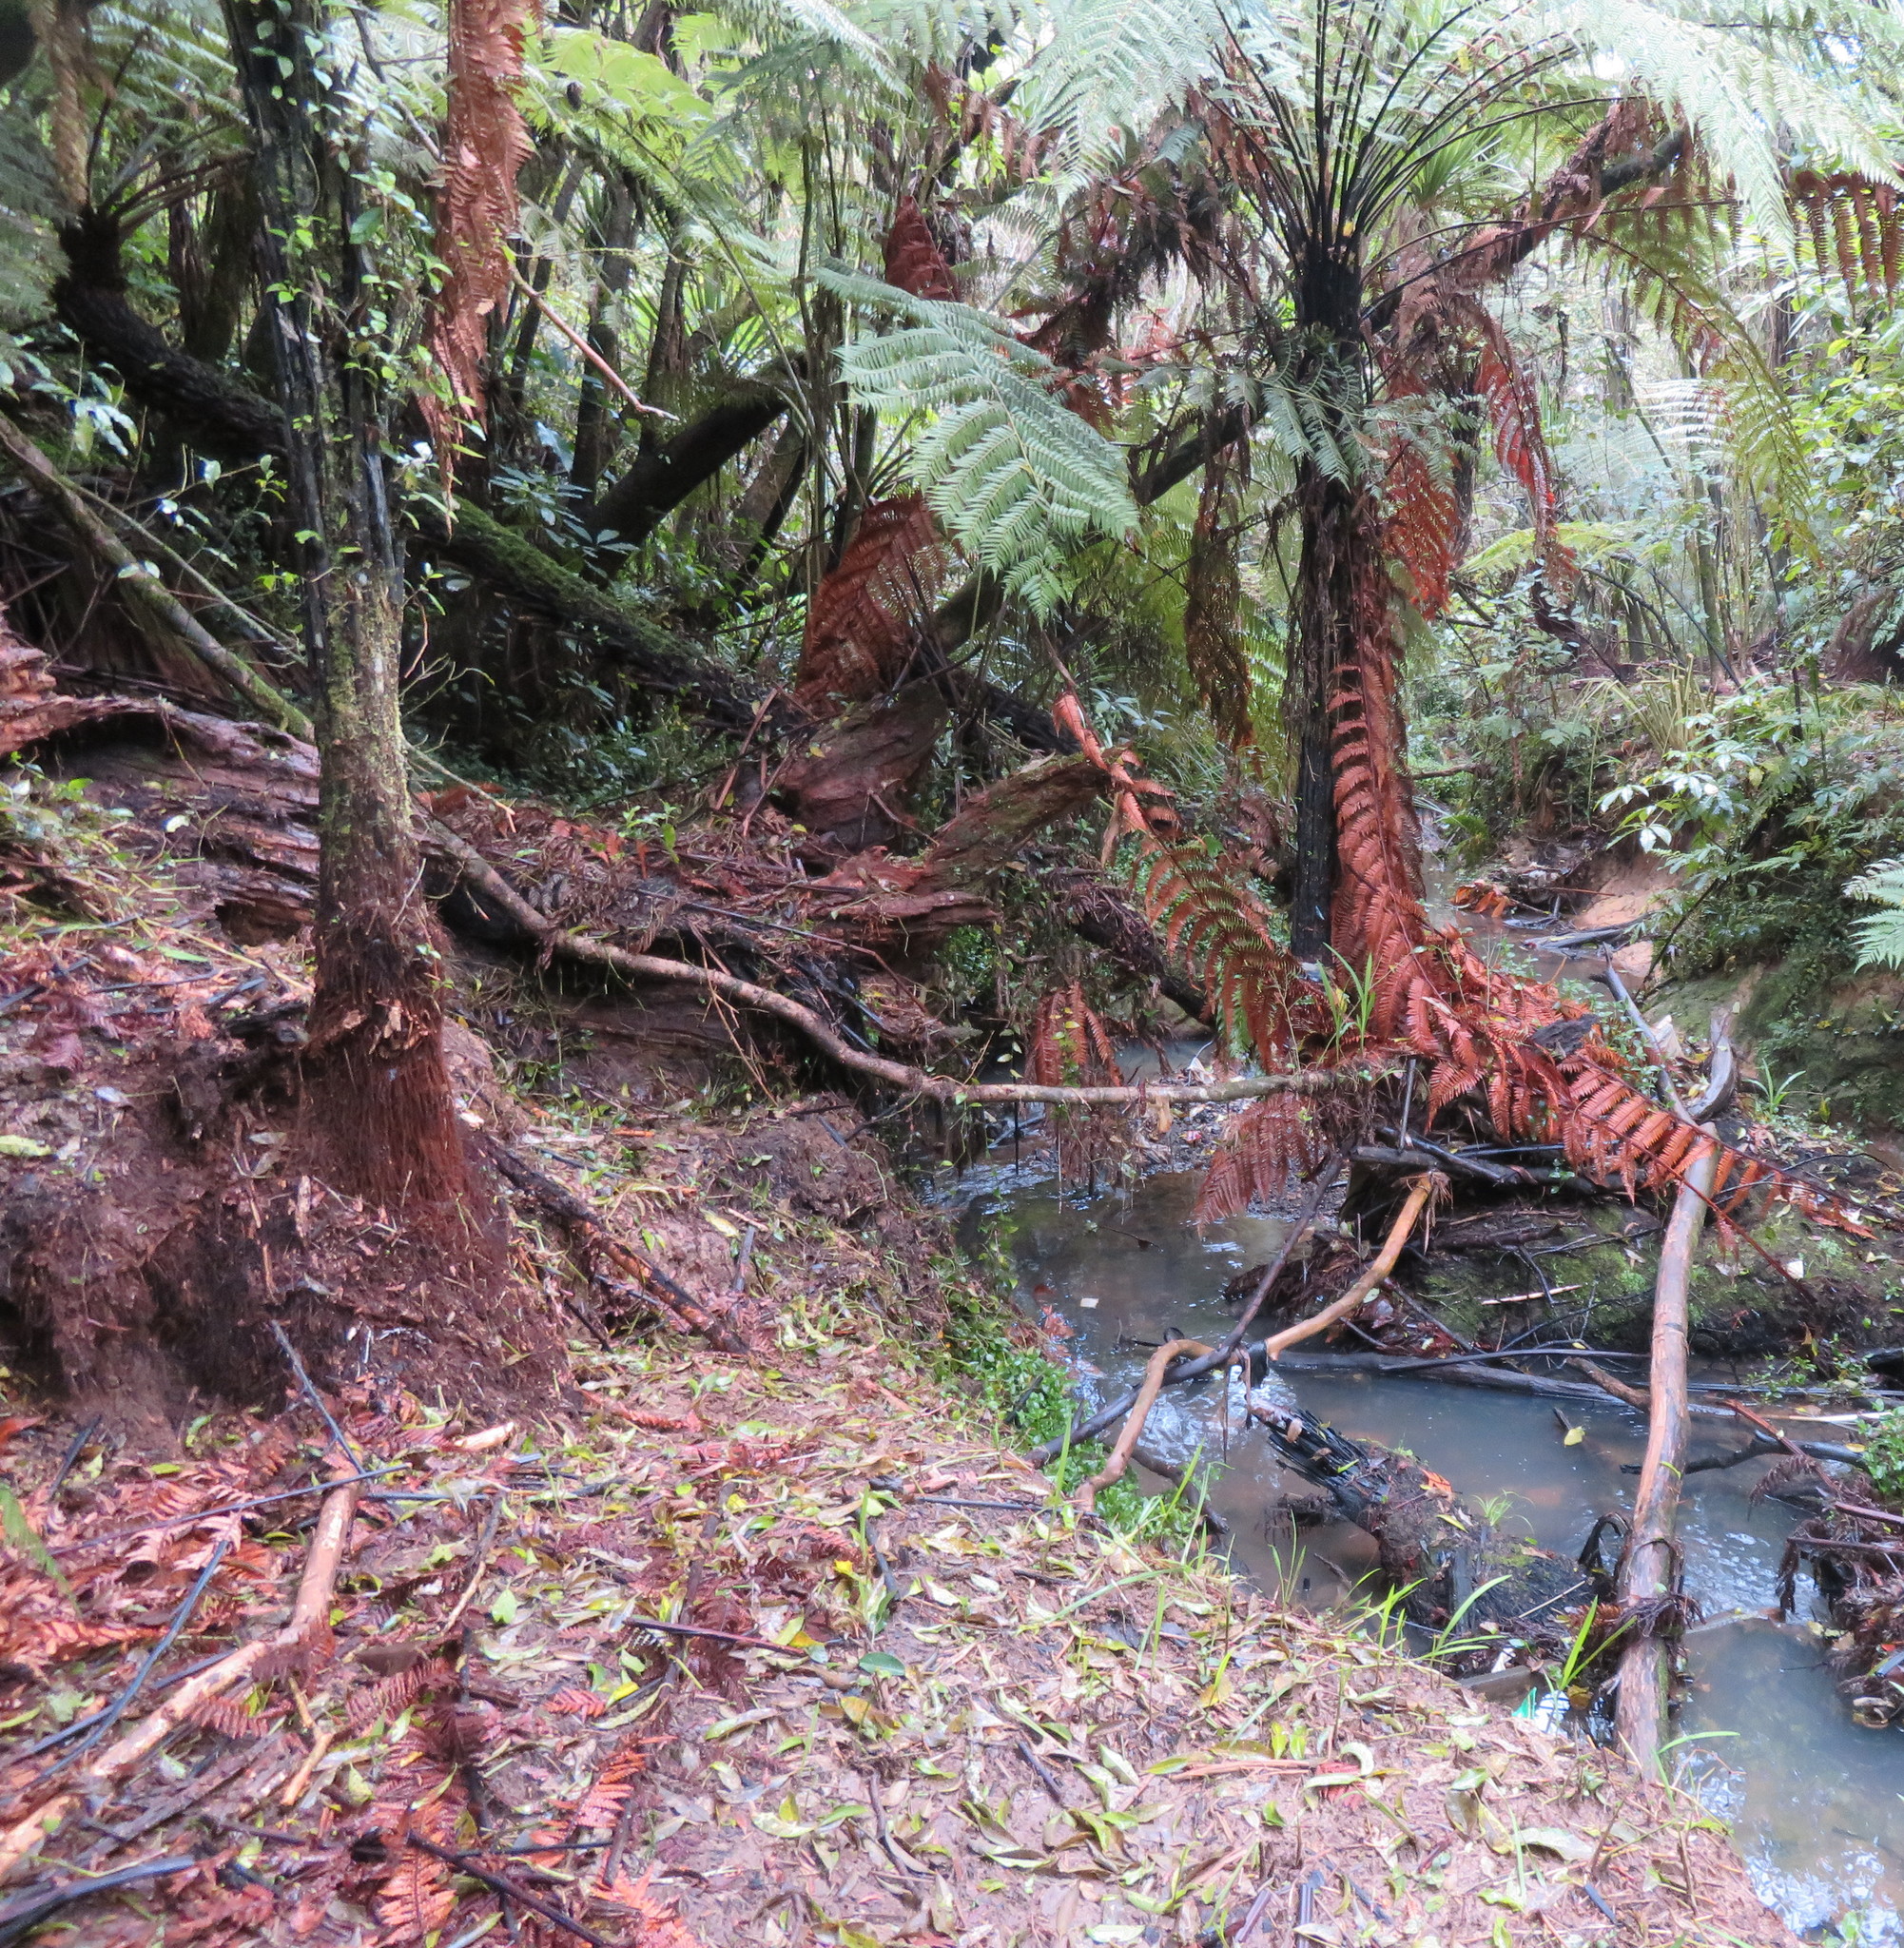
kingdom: Plantae
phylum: Tracheophyta
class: Liliopsida
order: Commelinales
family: Commelinaceae
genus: Tradescantia
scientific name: Tradescantia fluminensis
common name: Wandering-jew
